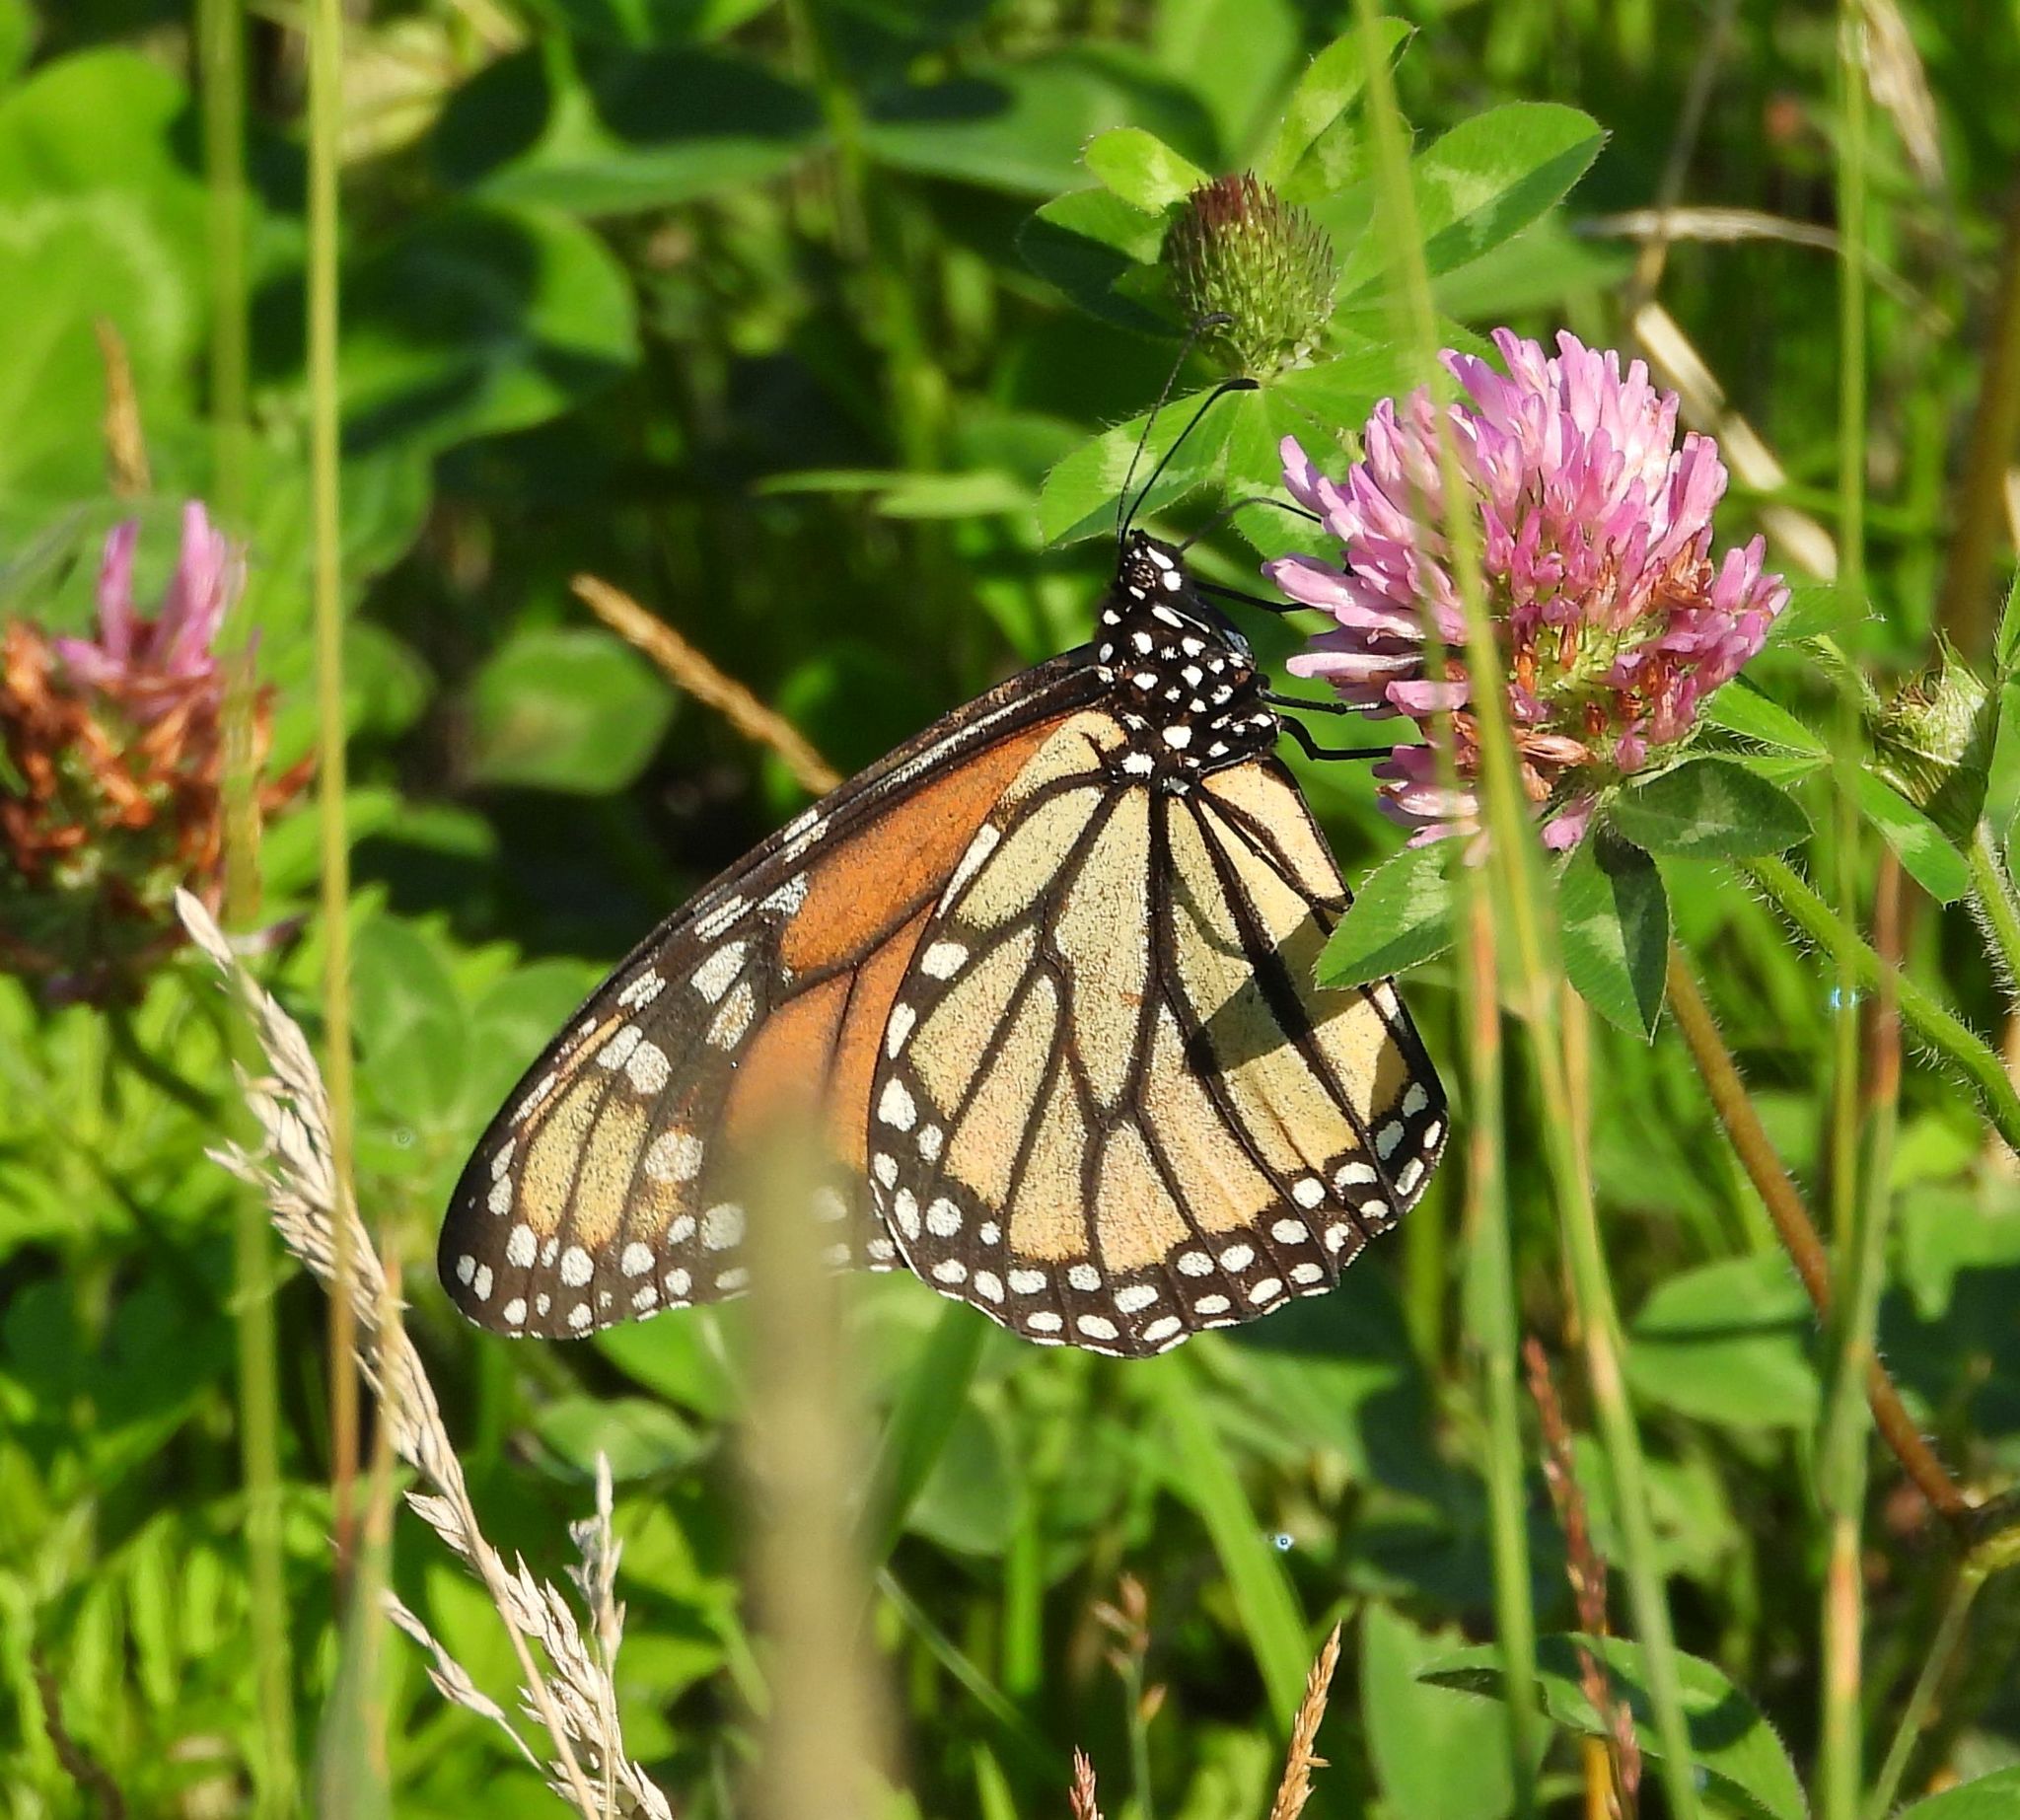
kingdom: Animalia
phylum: Arthropoda
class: Insecta
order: Lepidoptera
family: Nymphalidae
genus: Danaus
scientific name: Danaus plexippus
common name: Monarch
